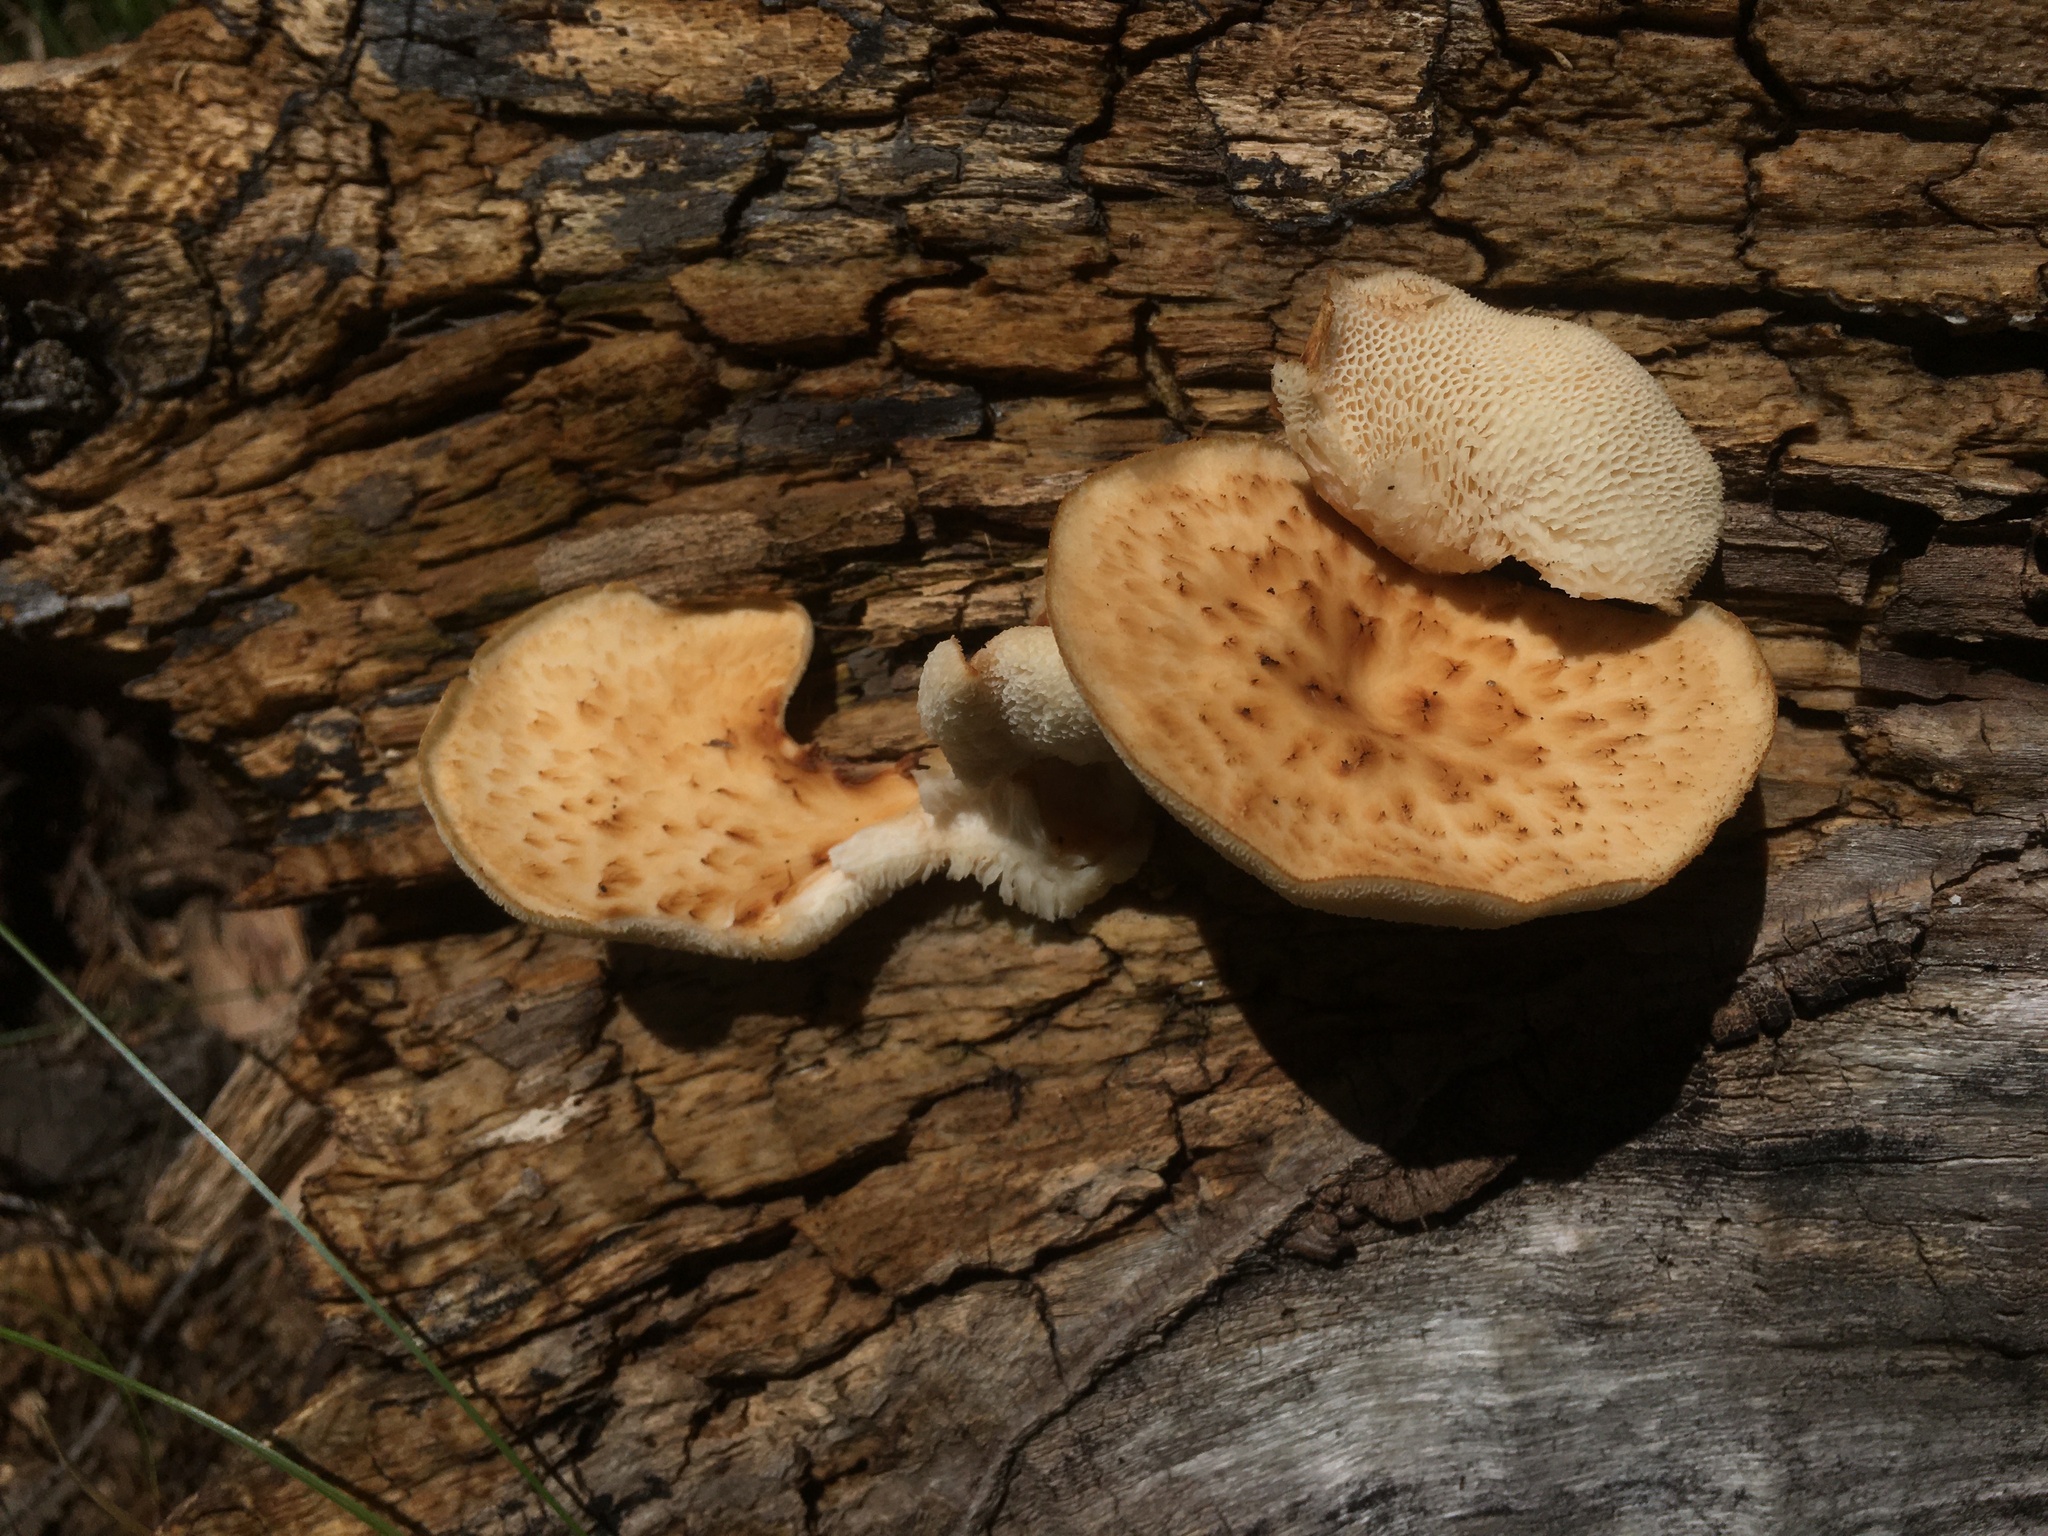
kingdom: Fungi
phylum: Basidiomycota
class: Agaricomycetes
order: Polyporales
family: Polyporaceae
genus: Cerioporus
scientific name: Cerioporus squamosus
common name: Dryad's saddle
